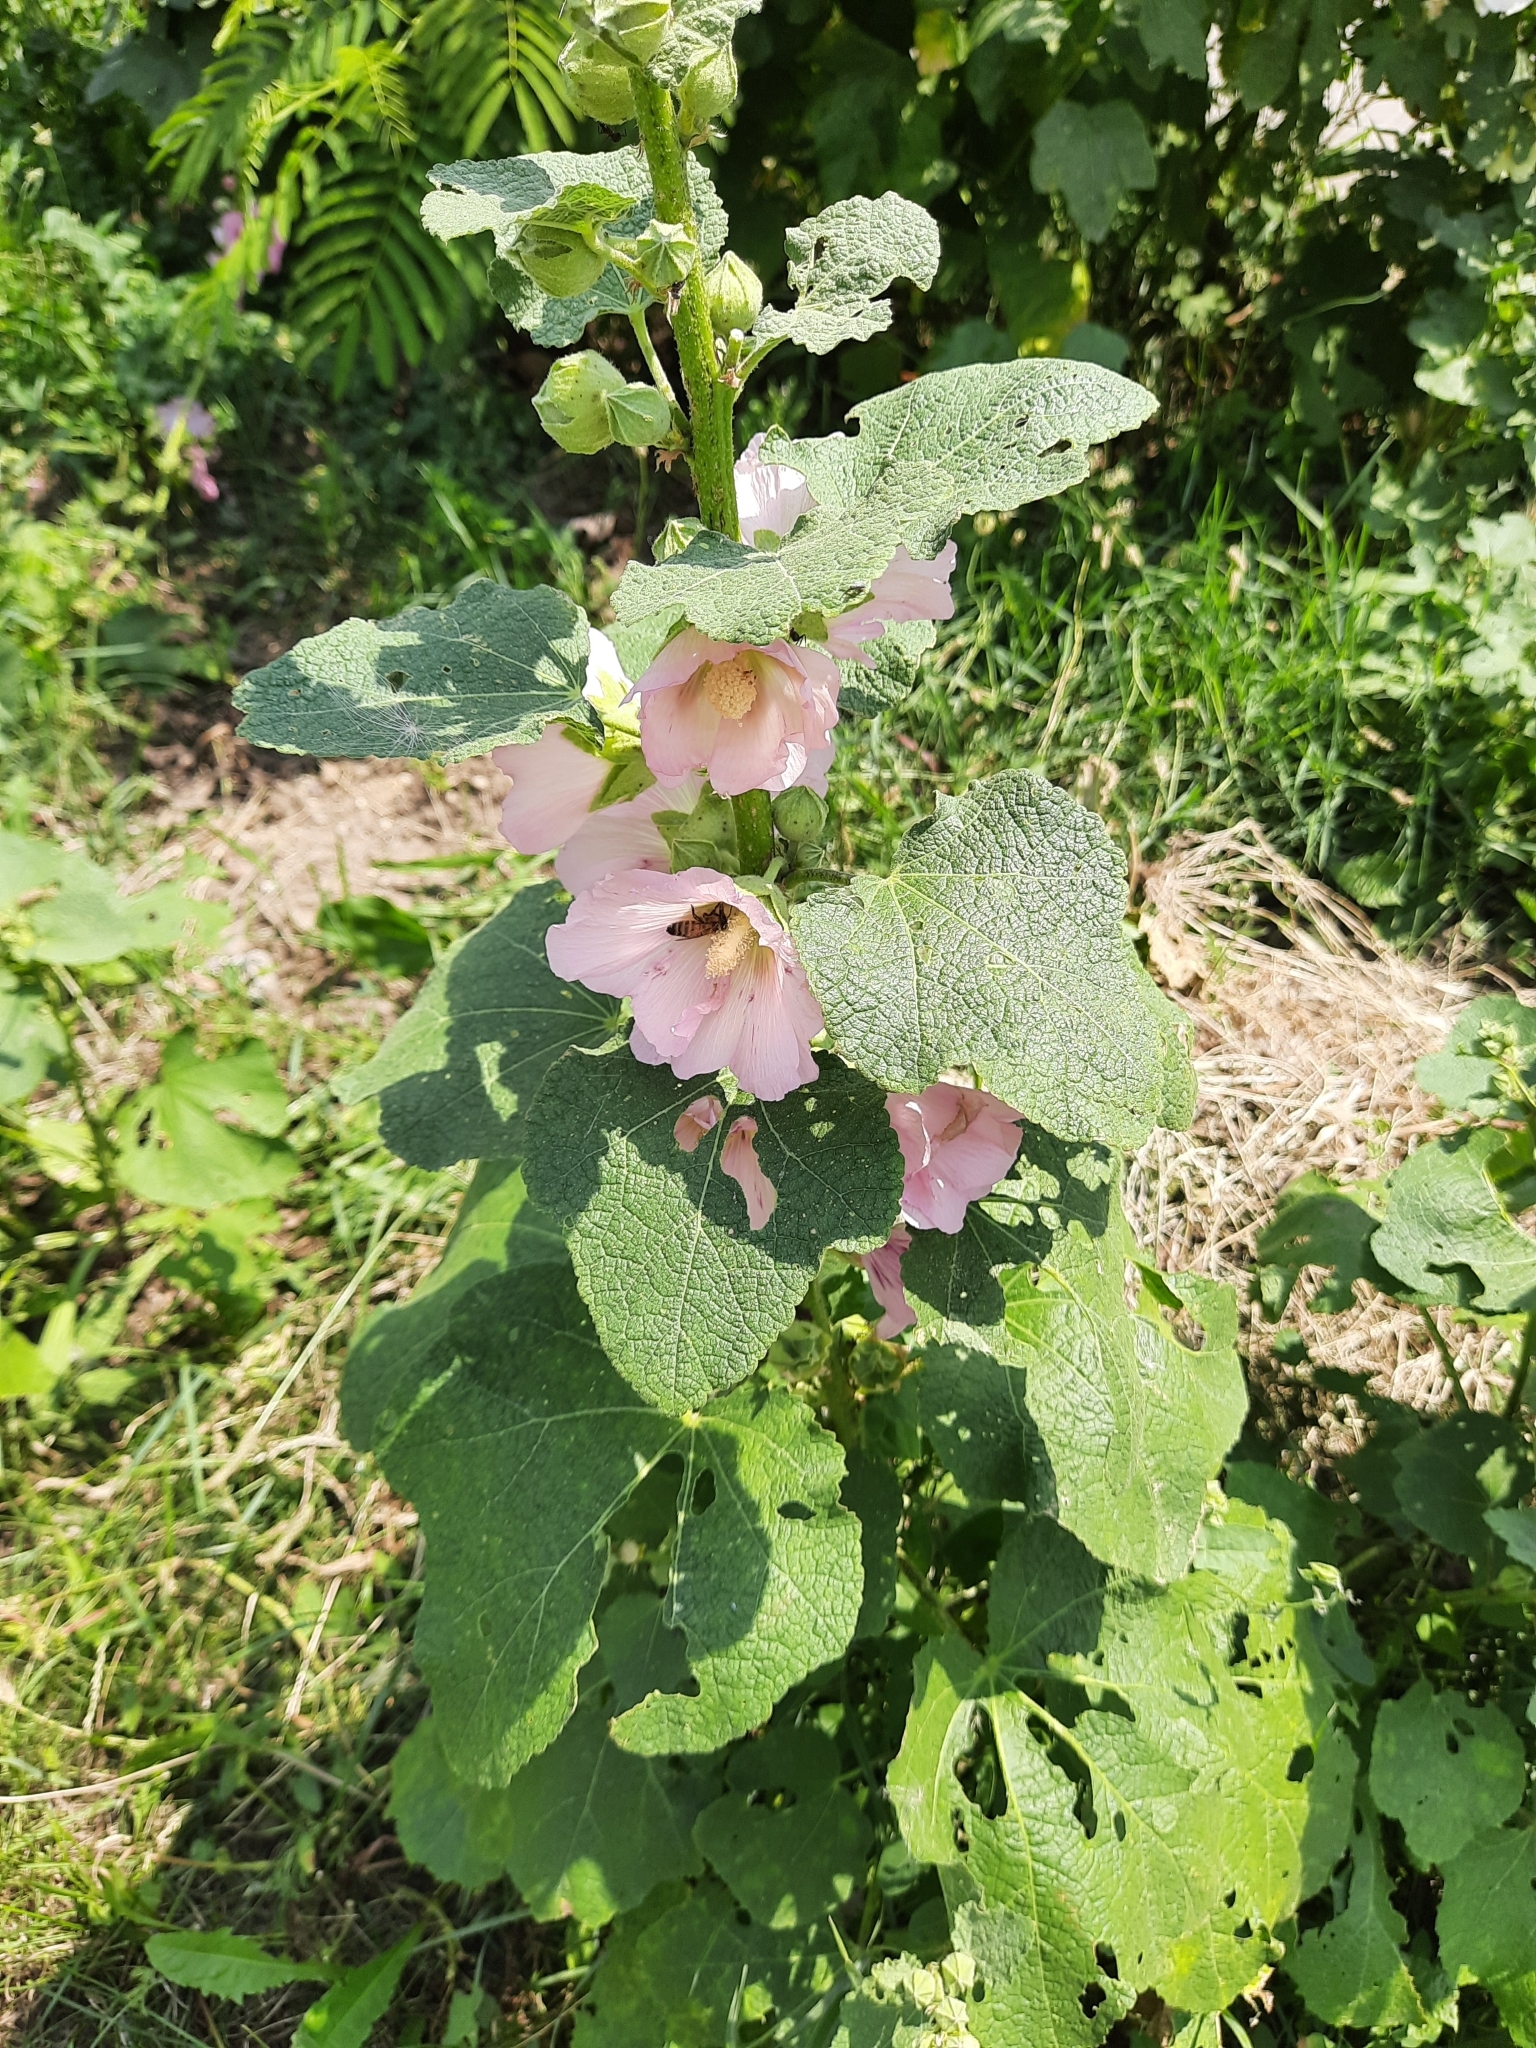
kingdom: Plantae
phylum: Tracheophyta
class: Magnoliopsida
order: Malvales
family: Malvaceae
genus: Alcea
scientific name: Alcea rosea
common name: Hollyhock
